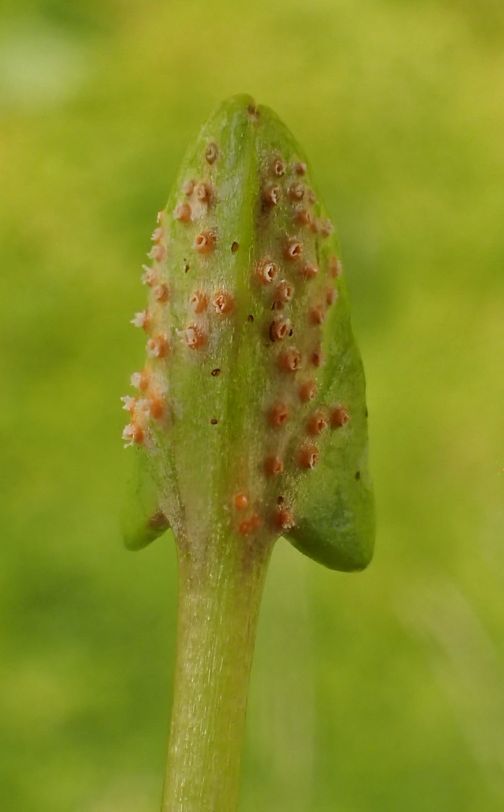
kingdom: Fungi
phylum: Basidiomycota
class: Pucciniomycetes
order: Pucciniales
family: Pucciniaceae
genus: Aecidium
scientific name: Aecidium westlandicum
